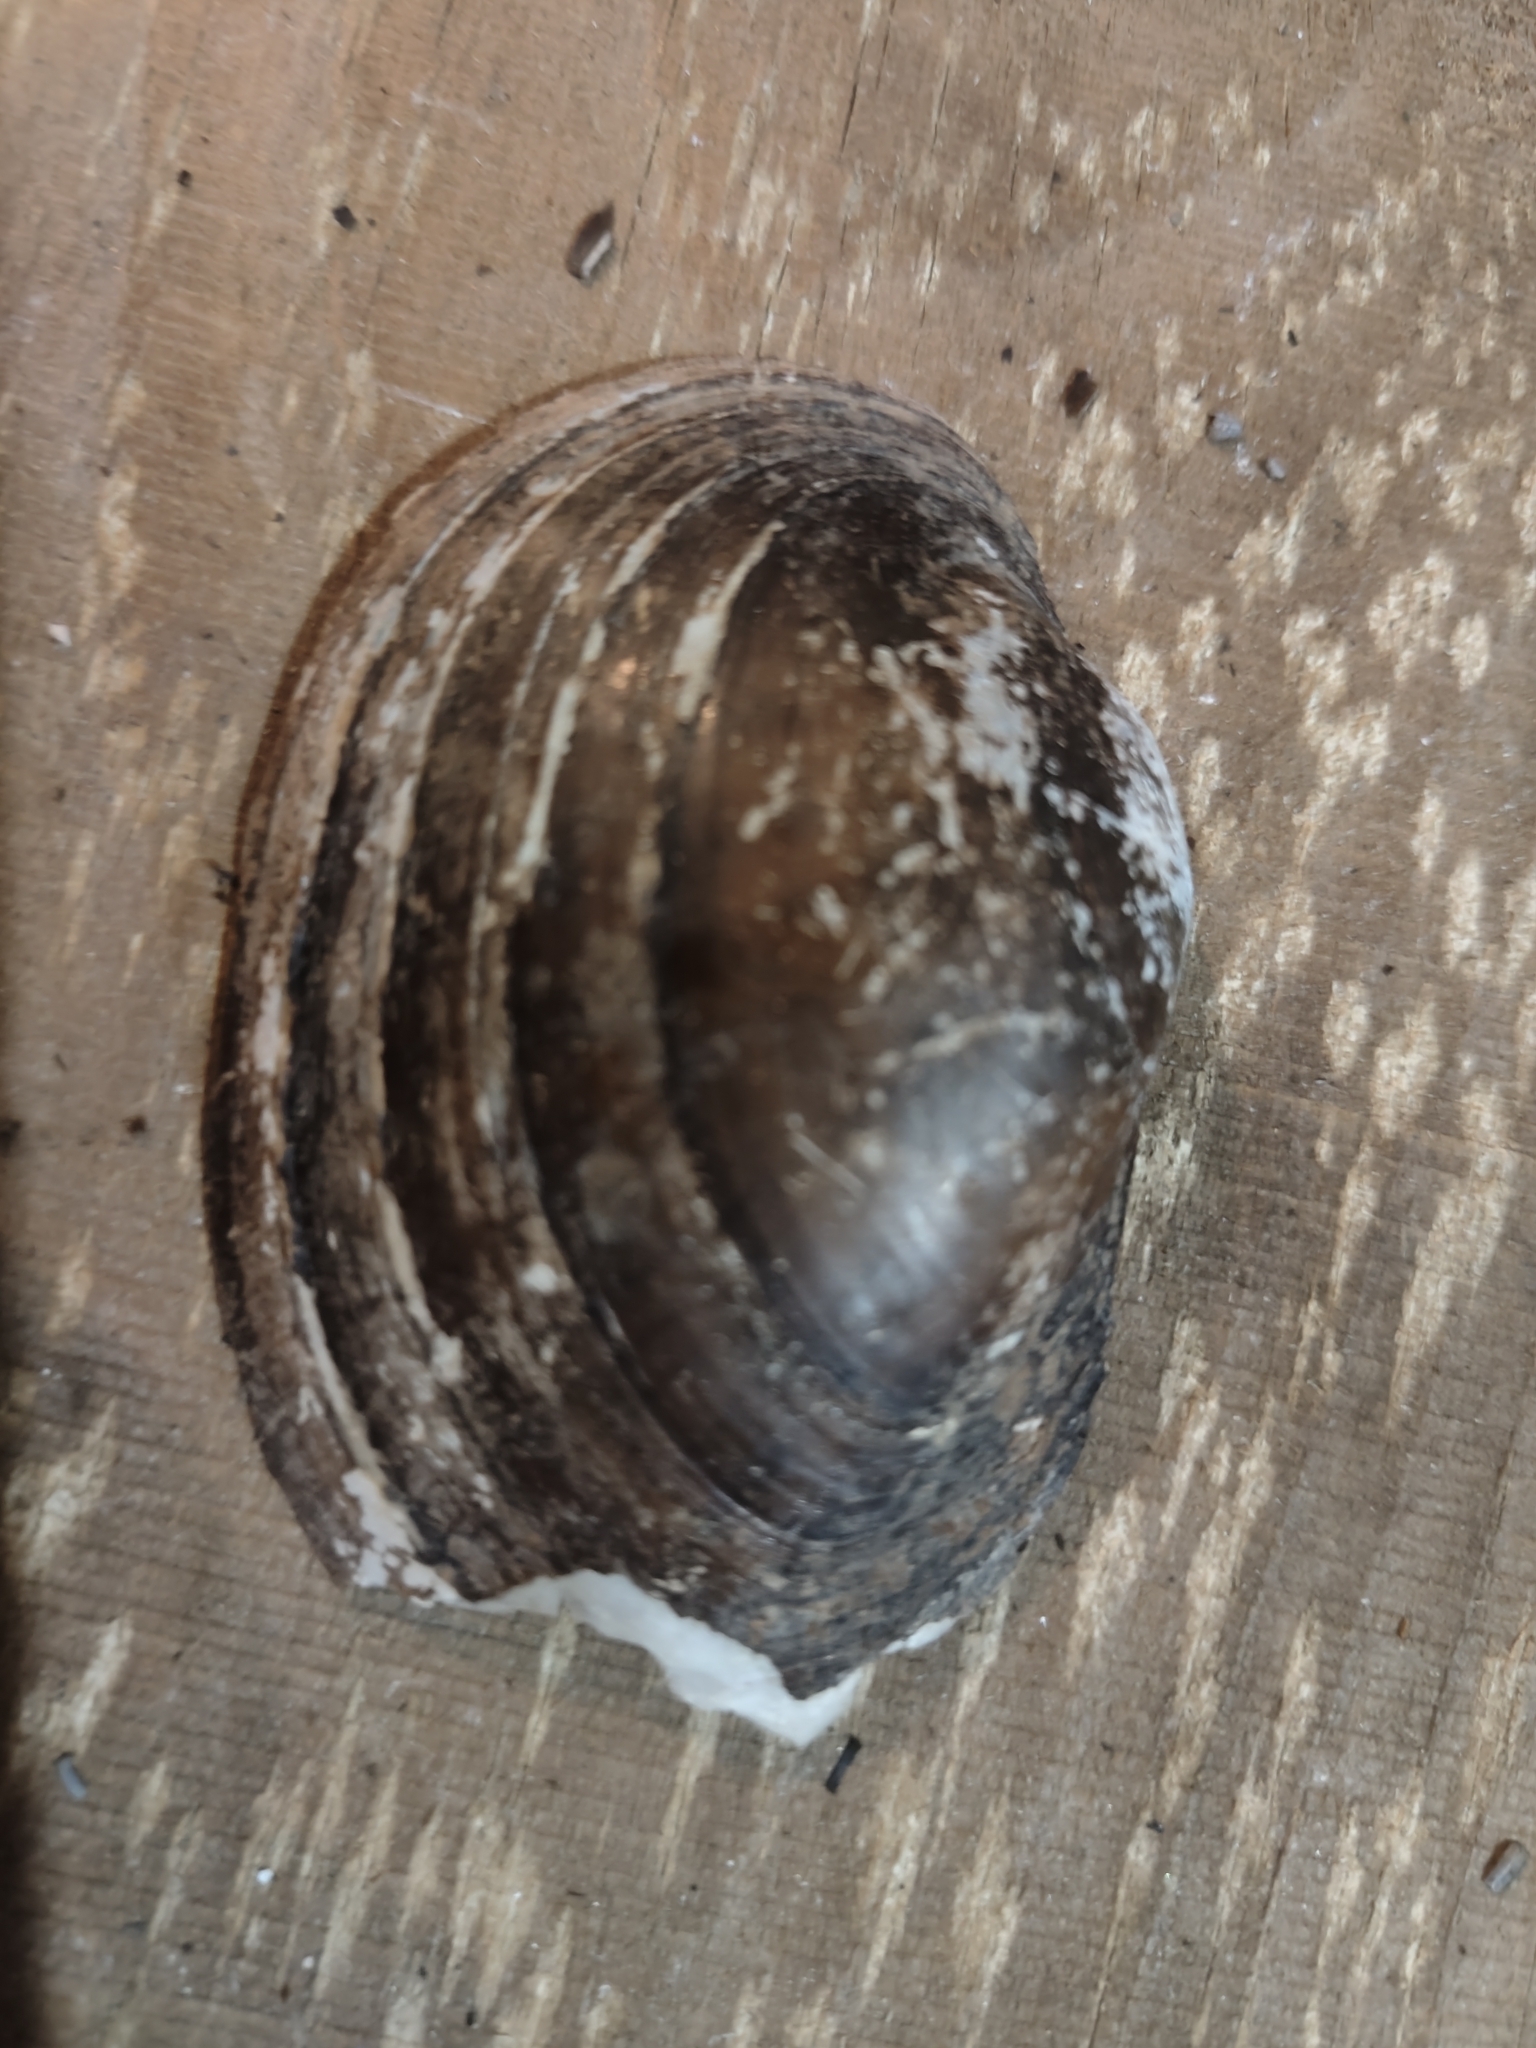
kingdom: Animalia
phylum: Mollusca
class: Bivalvia
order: Unionida
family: Unionidae
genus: Lampsilis
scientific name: Lampsilis cardium
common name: Plain pocketbook
